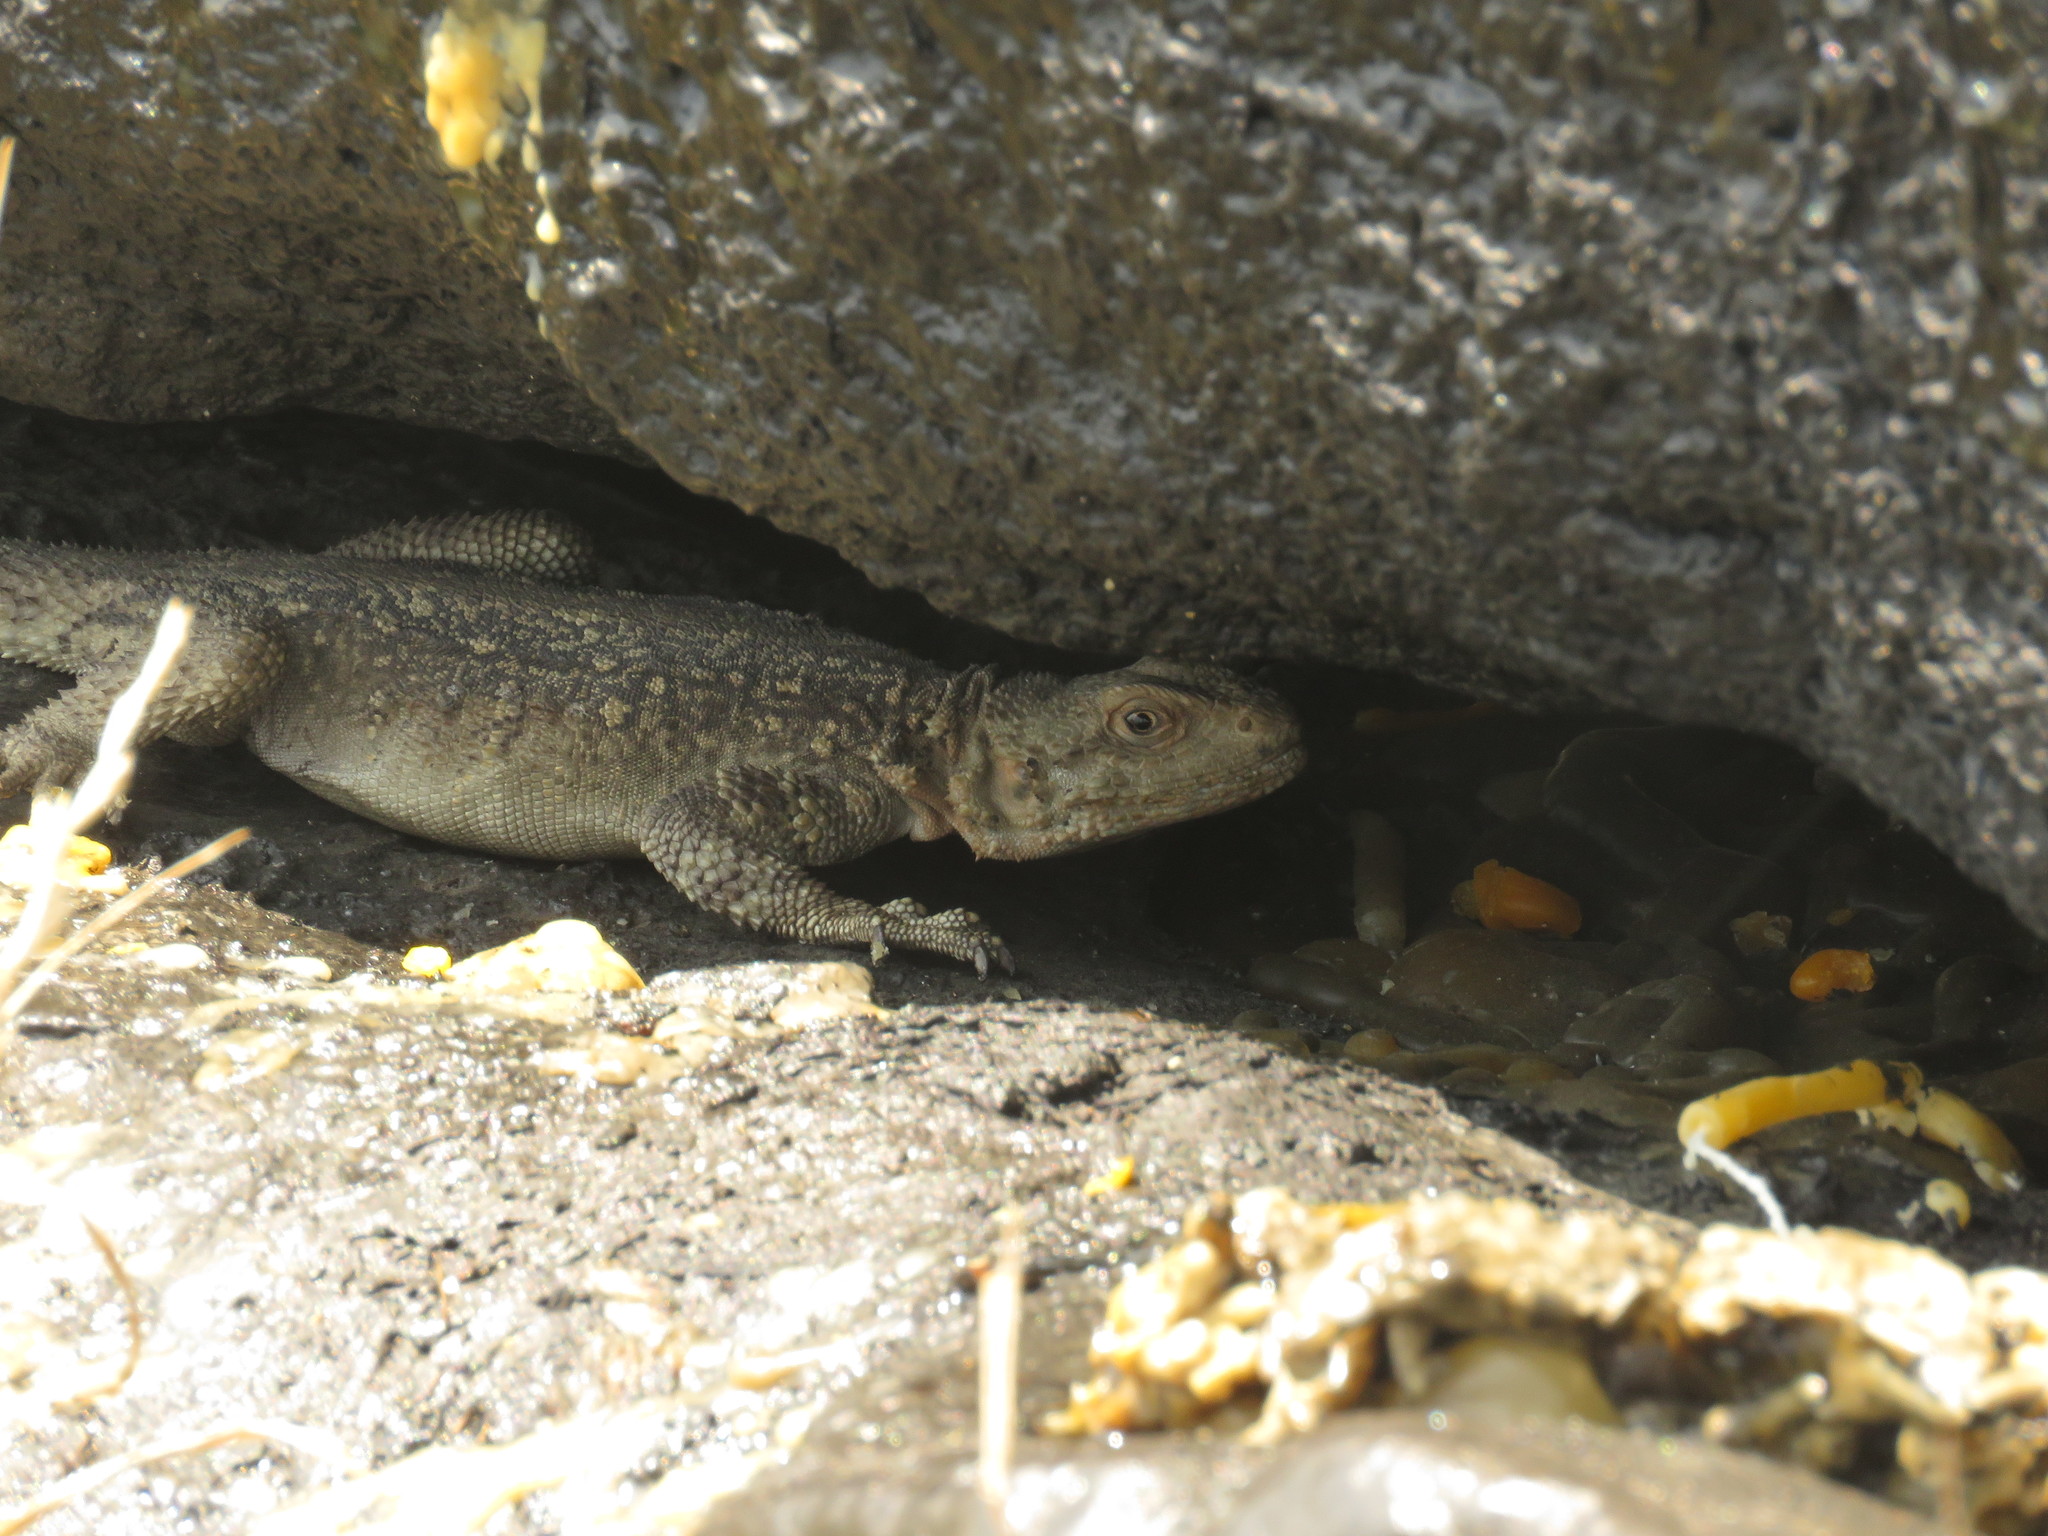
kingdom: Animalia
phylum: Chordata
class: Squamata
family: Agamidae
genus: Paralaudakia
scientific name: Paralaudakia caucasia
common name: Caucasian agama
